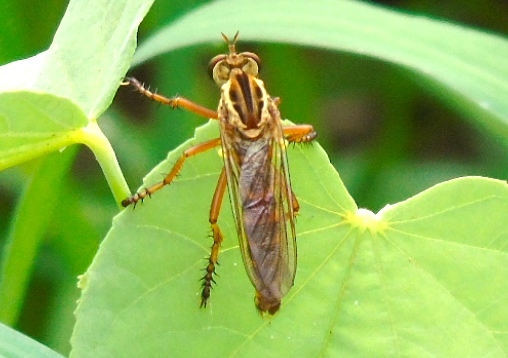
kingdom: Animalia
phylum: Arthropoda
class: Insecta
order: Diptera
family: Asilidae
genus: Diogmites
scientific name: Diogmites
